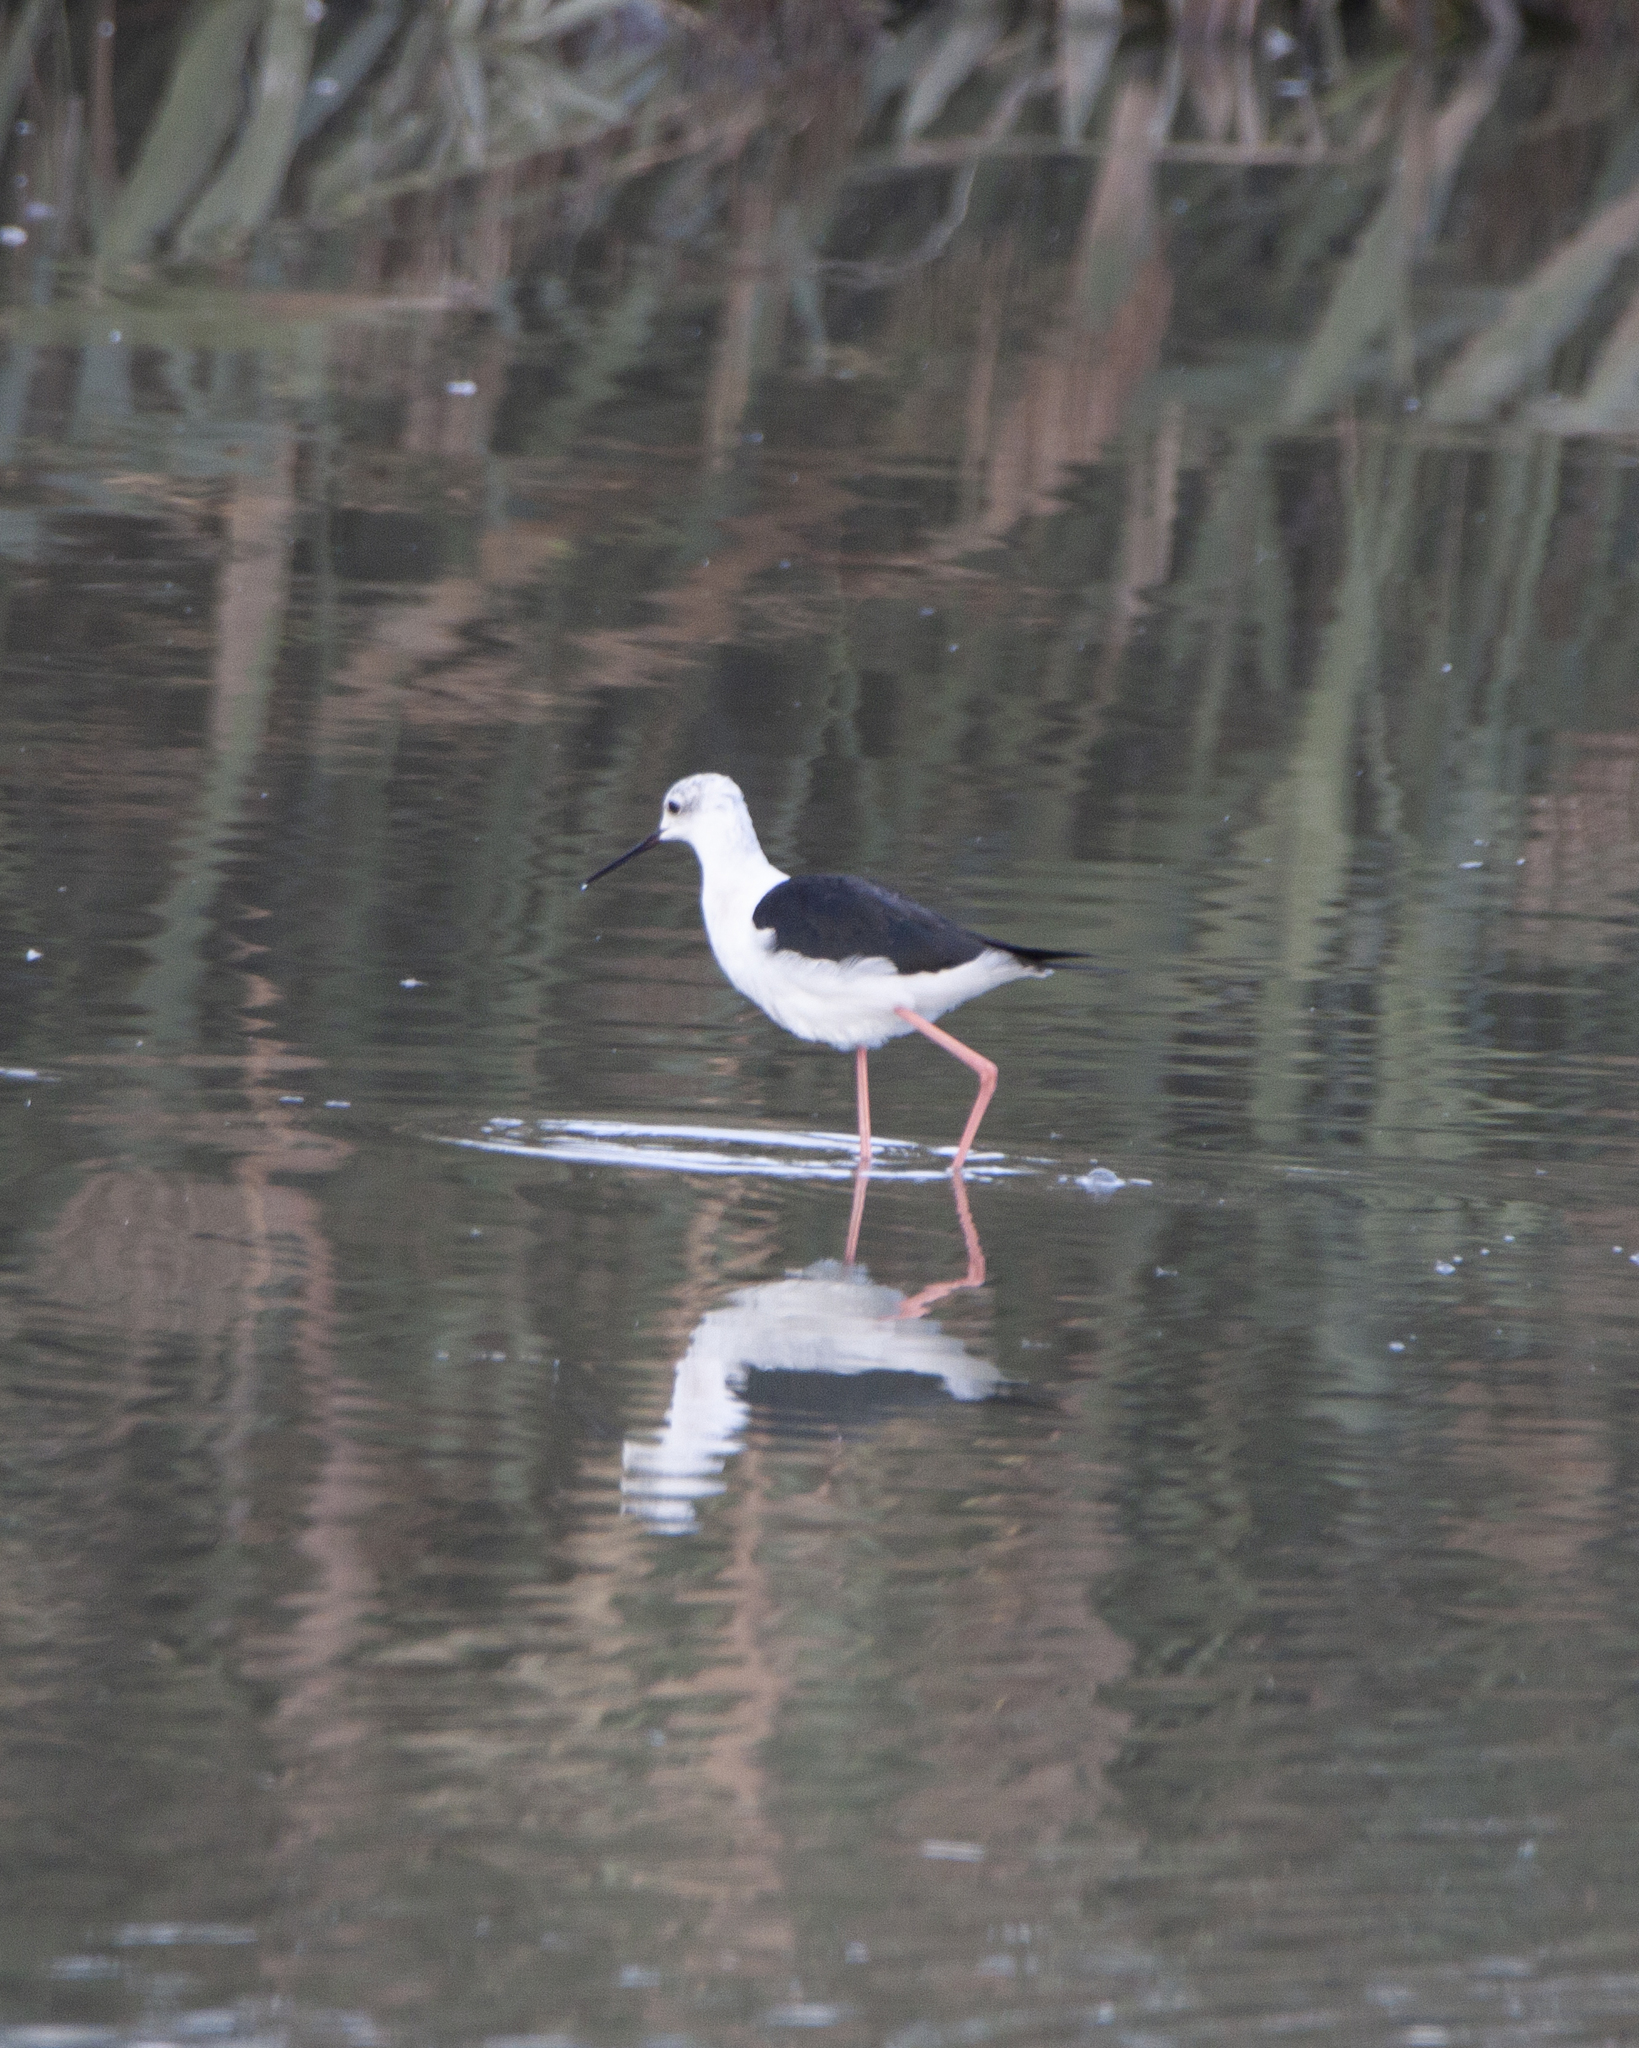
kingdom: Animalia
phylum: Chordata
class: Aves
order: Charadriiformes
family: Recurvirostridae
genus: Himantopus
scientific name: Himantopus himantopus
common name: Black-winged stilt
